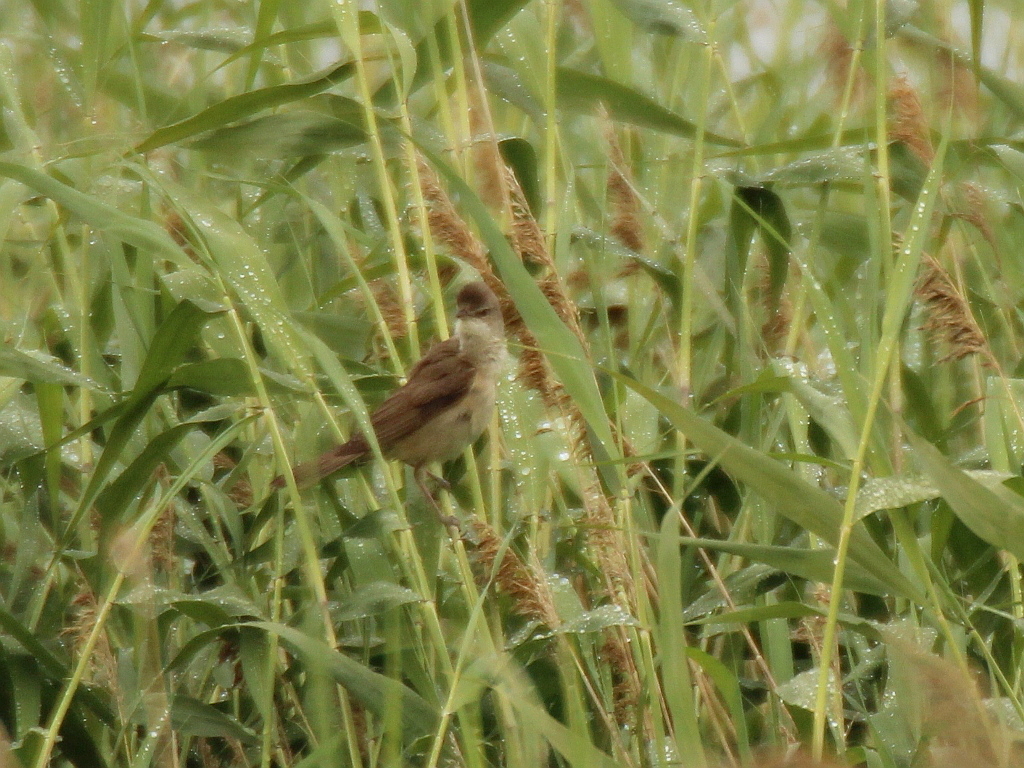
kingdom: Animalia
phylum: Chordata
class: Aves
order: Passeriformes
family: Acrocephalidae
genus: Acrocephalus
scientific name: Acrocephalus arundinaceus
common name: Great reed warbler
